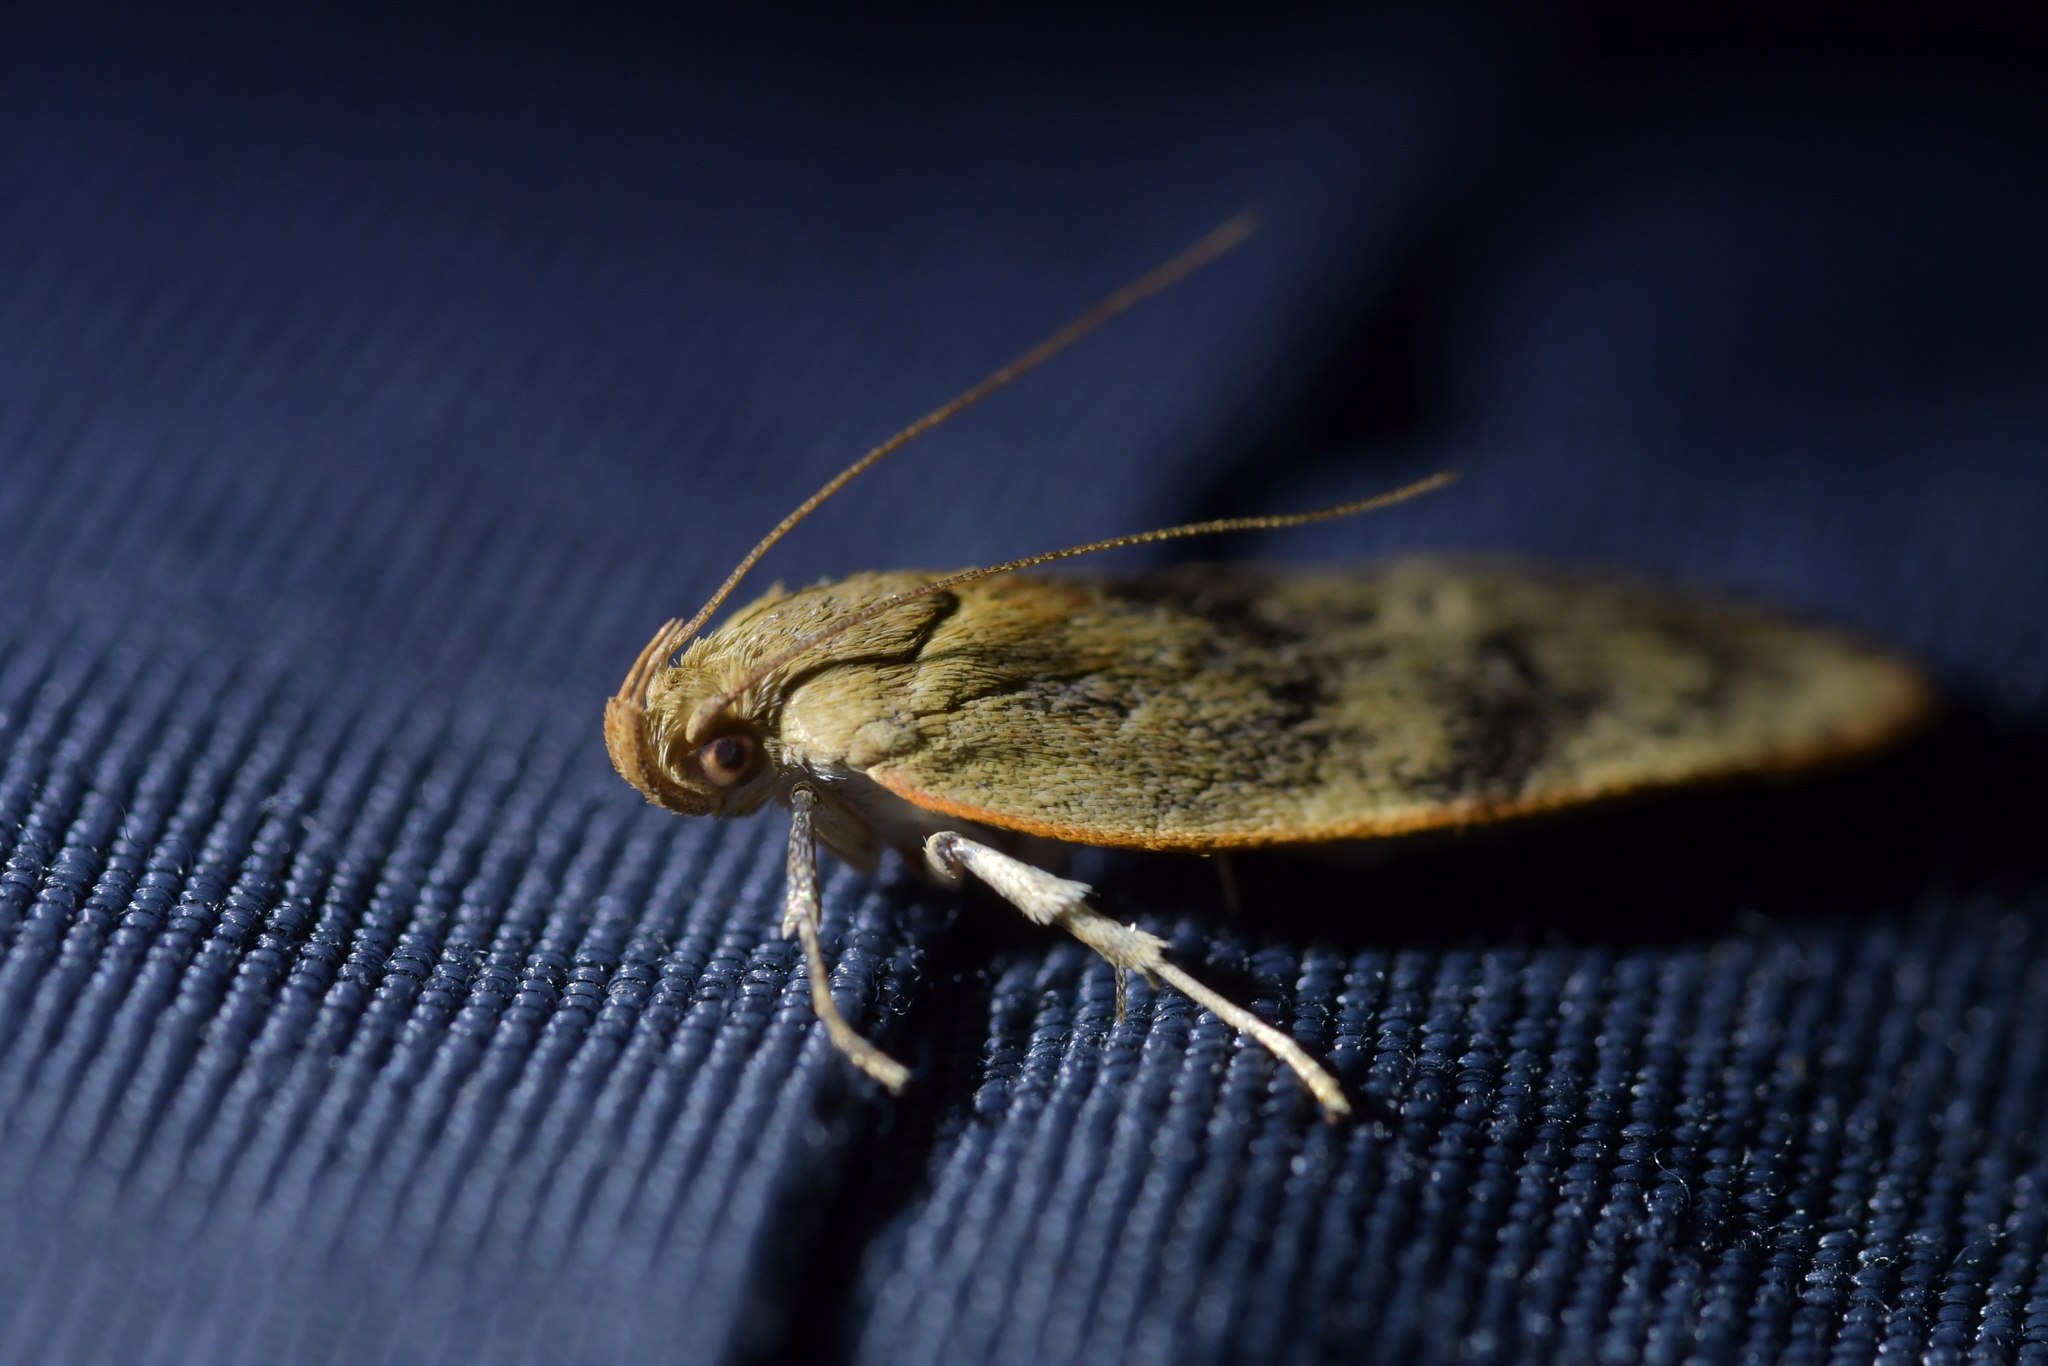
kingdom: Animalia
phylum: Arthropoda
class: Insecta
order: Lepidoptera
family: Depressariidae
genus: Phaeosaces
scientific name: Phaeosaces coarctatella
